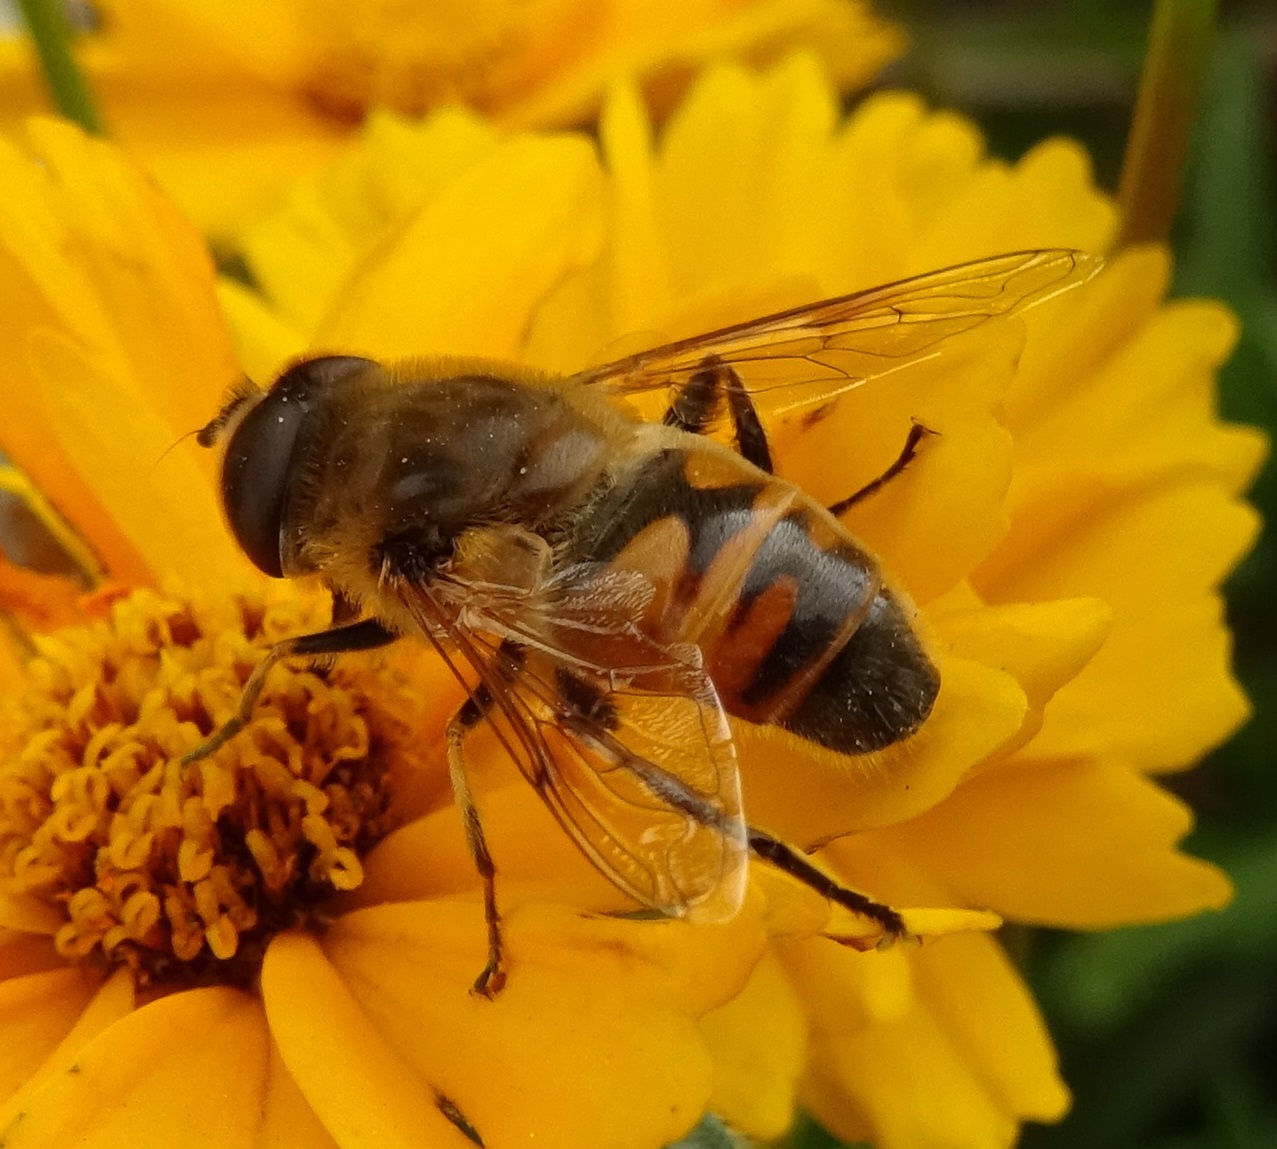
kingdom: Animalia
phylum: Arthropoda
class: Insecta
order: Diptera
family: Syrphidae
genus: Eristalis
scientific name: Eristalis tenax
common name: Drone fly
